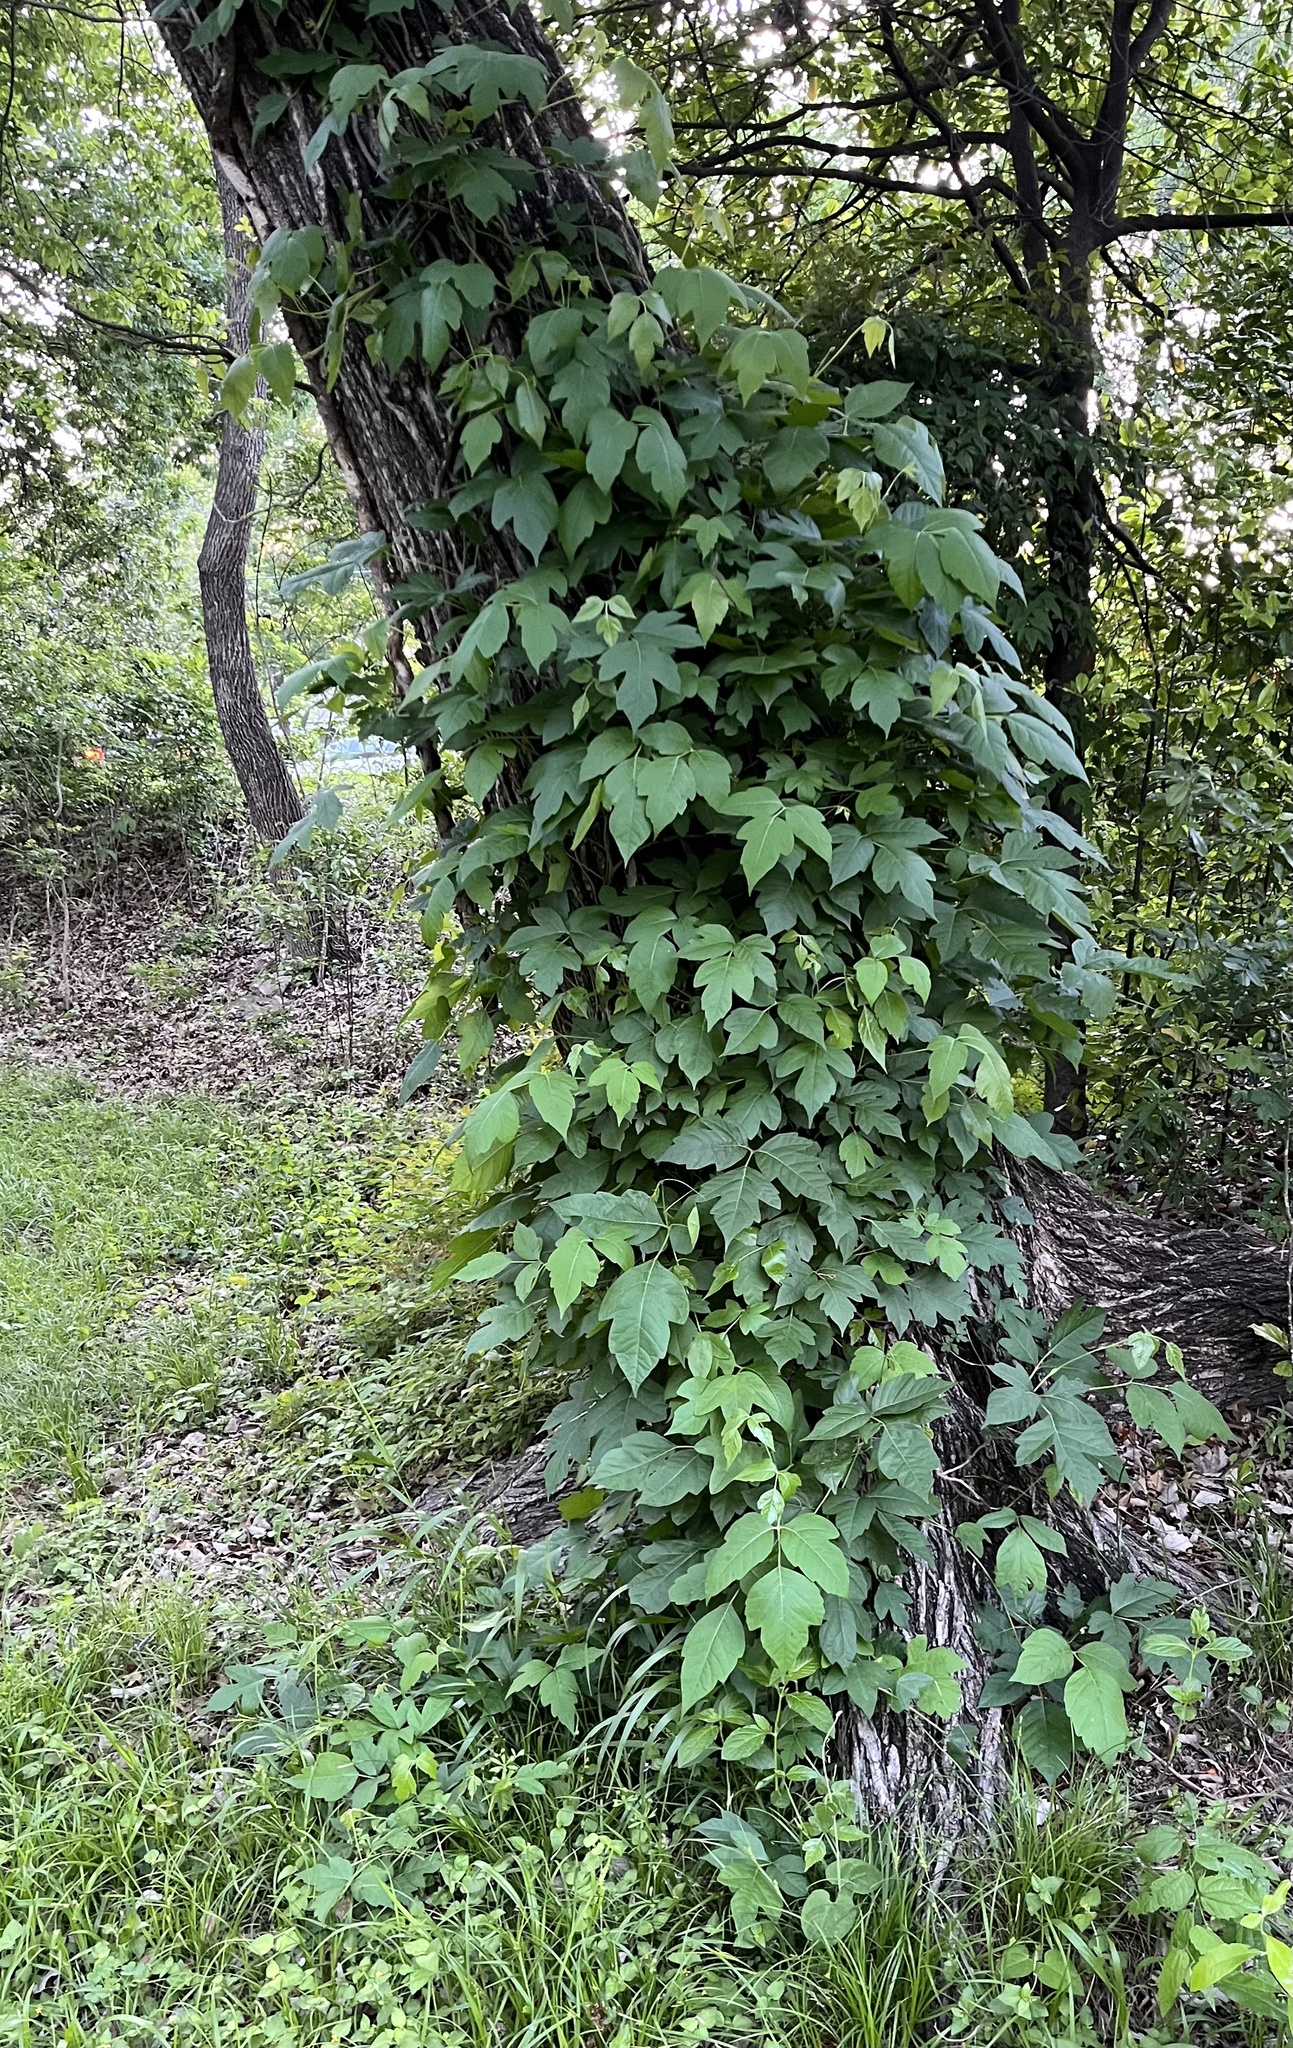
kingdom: Plantae
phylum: Tracheophyta
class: Magnoliopsida
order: Sapindales
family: Anacardiaceae
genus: Toxicodendron
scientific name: Toxicodendron radicans
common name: Poison ivy
